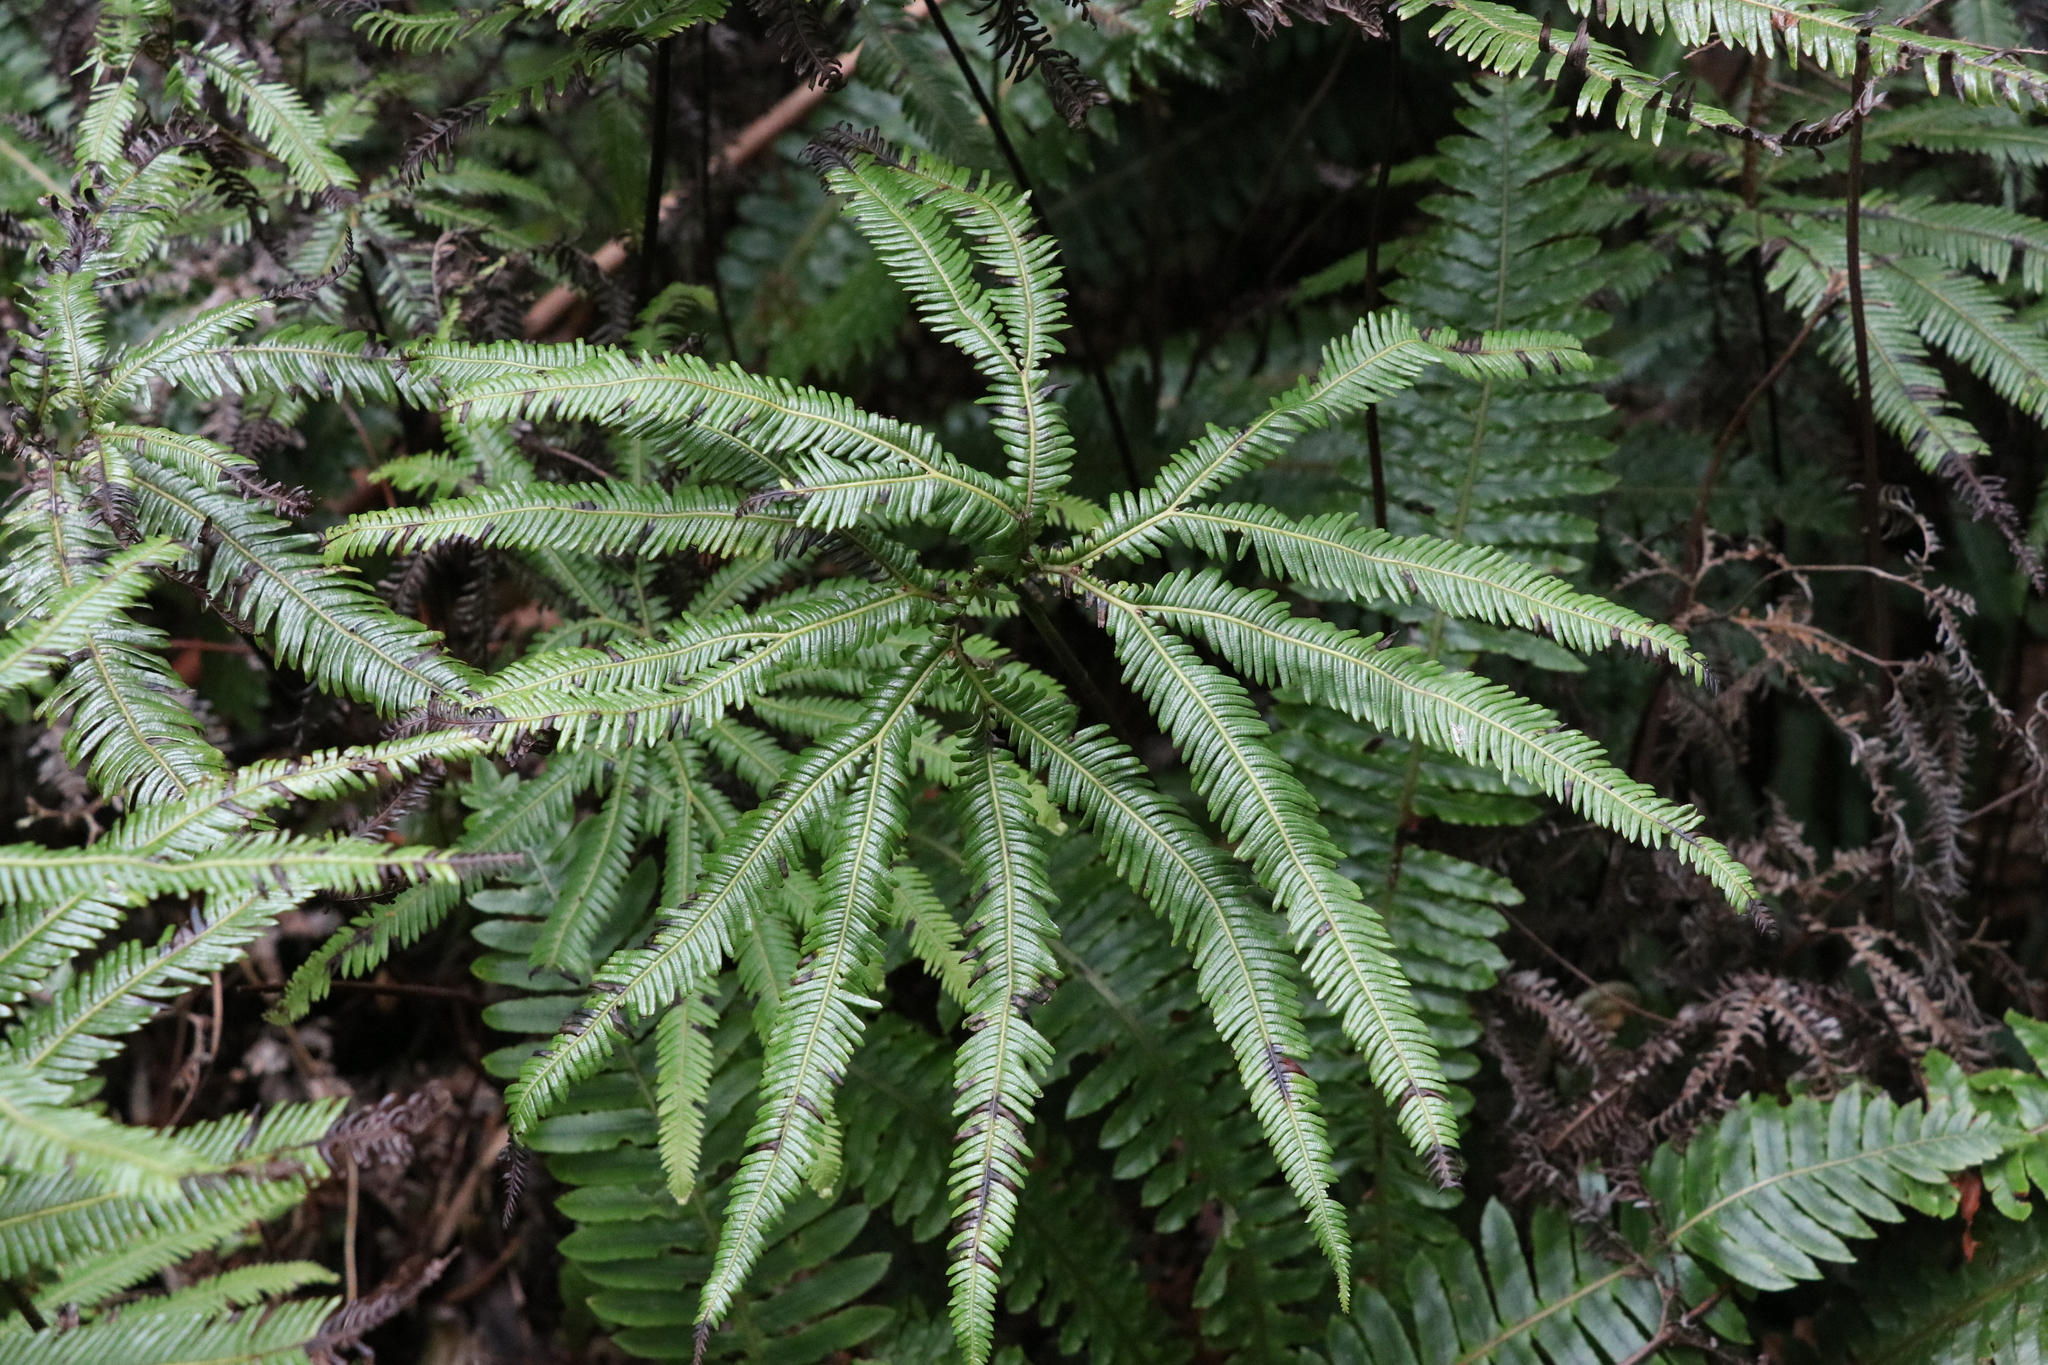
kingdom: Plantae
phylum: Tracheophyta
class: Polypodiopsida
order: Gleicheniales
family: Gleicheniaceae
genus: Sticherus
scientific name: Sticherus cunninghamii
